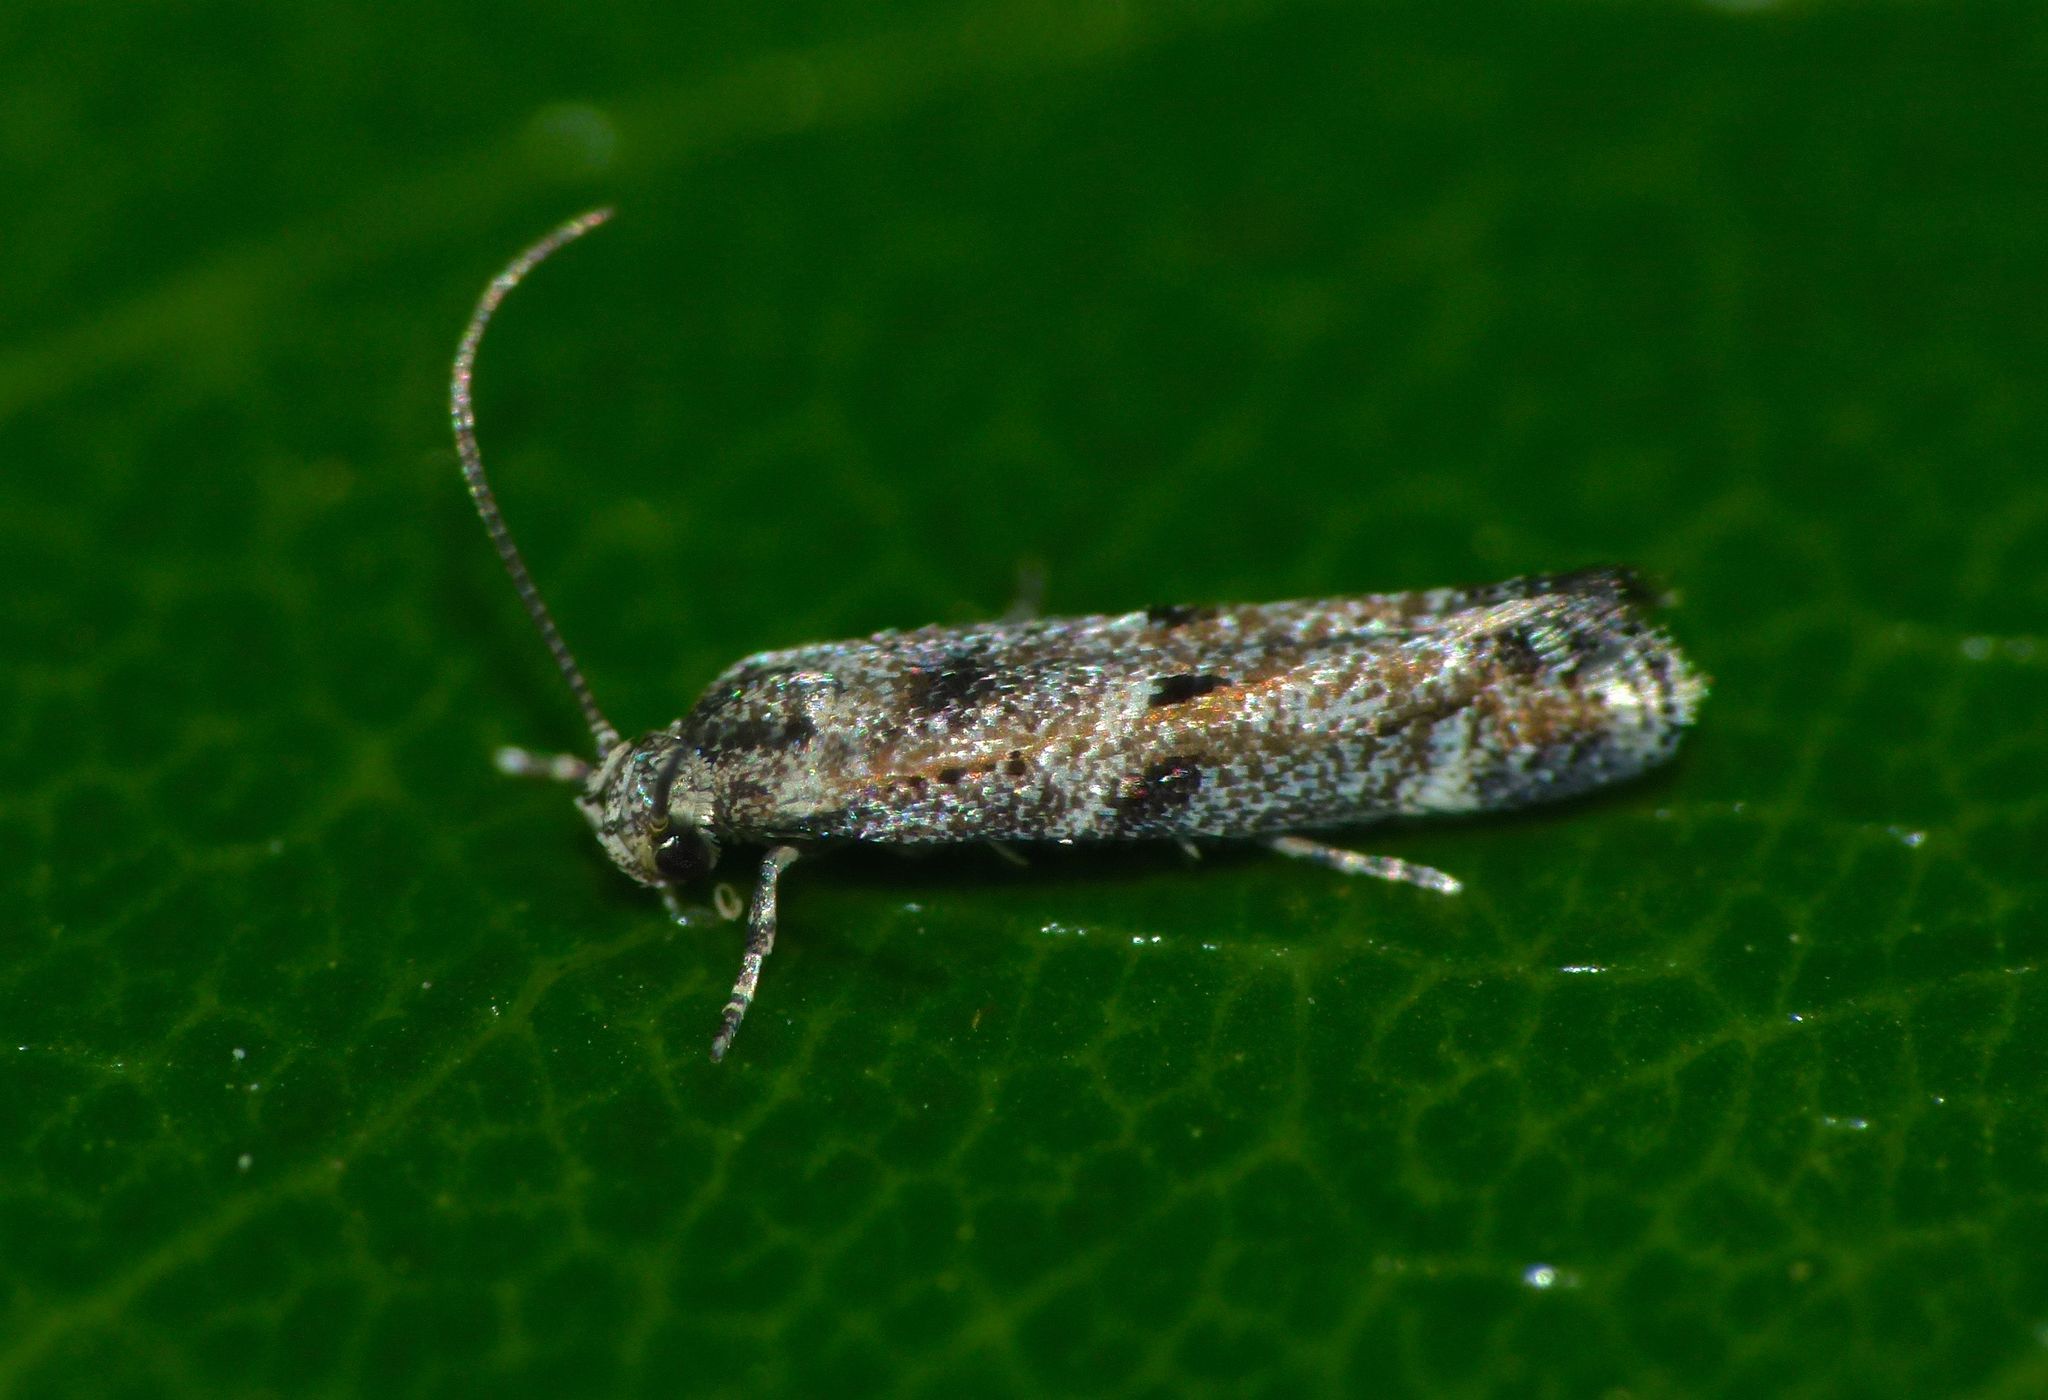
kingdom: Animalia
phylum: Arthropoda
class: Insecta
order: Lepidoptera
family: Elachistidae
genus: Elachista
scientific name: Elachista synethes
